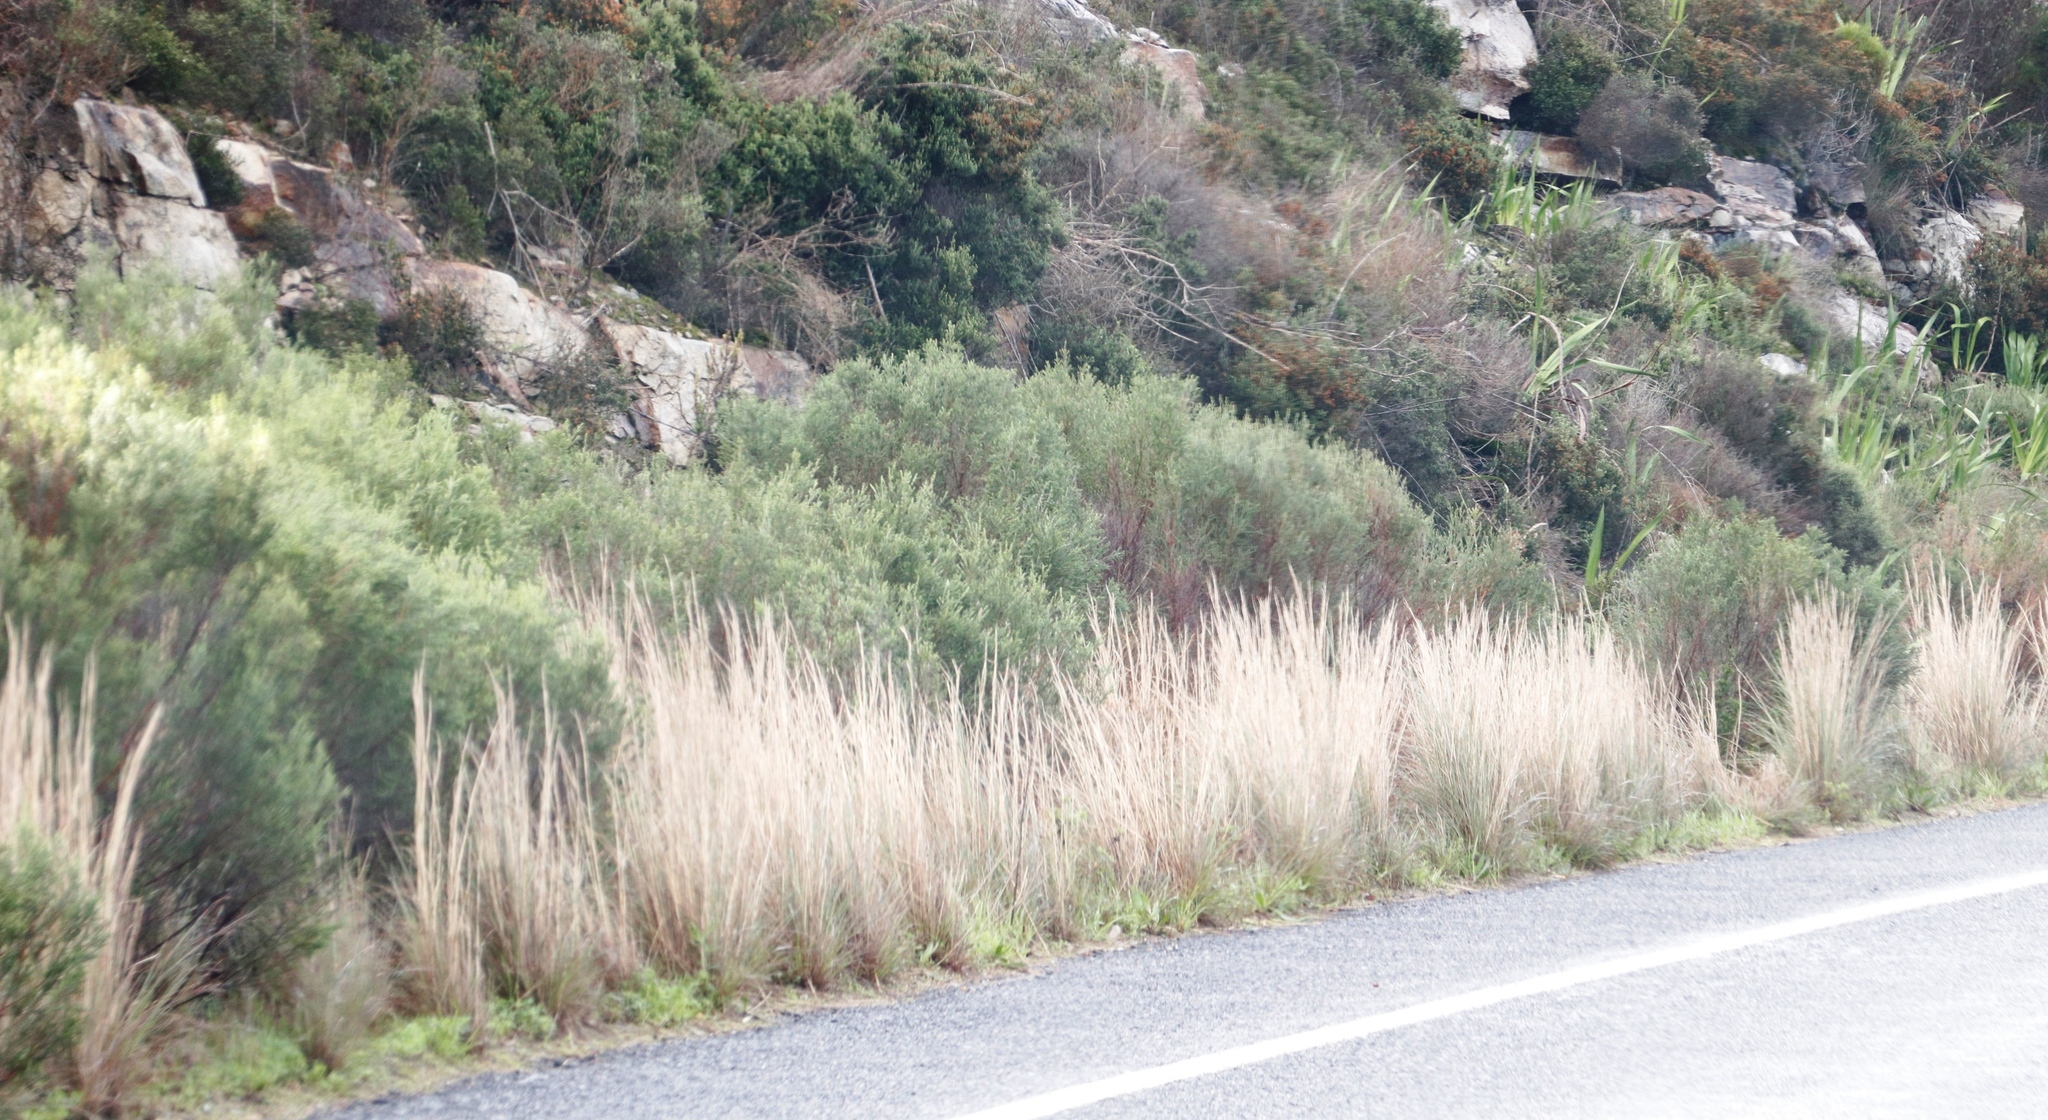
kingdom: Plantae
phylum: Tracheophyta
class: Magnoliopsida
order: Malvales
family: Thymelaeaceae
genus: Passerina
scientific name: Passerina corymbosa
